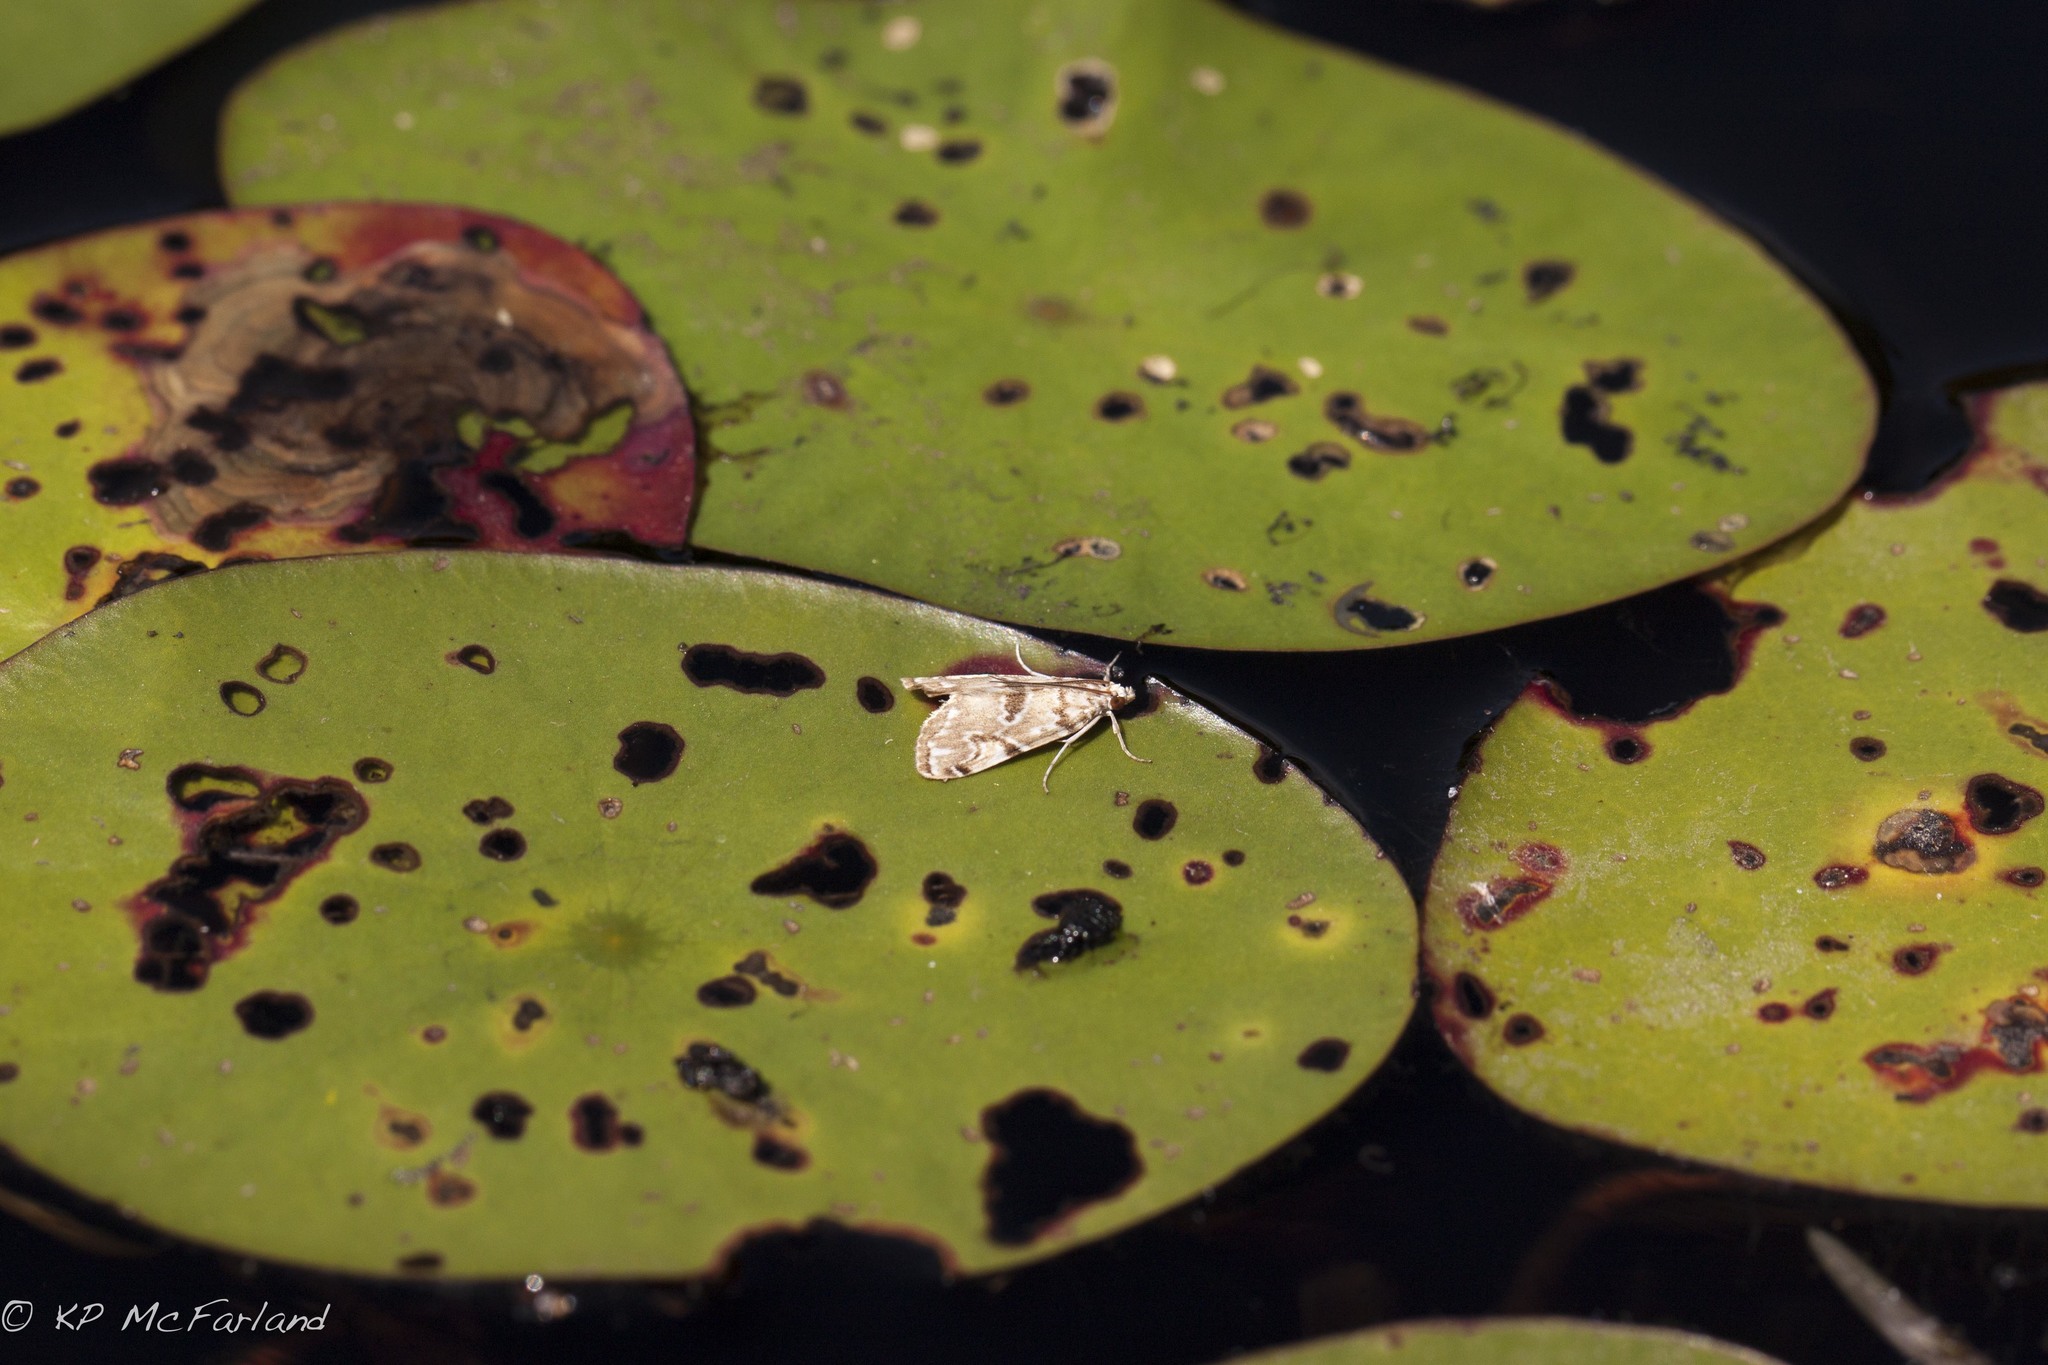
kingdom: Animalia
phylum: Arthropoda
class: Insecta
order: Lepidoptera
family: Crambidae
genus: Elophila
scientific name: Elophila gyralis
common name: Waterlily borer moth
